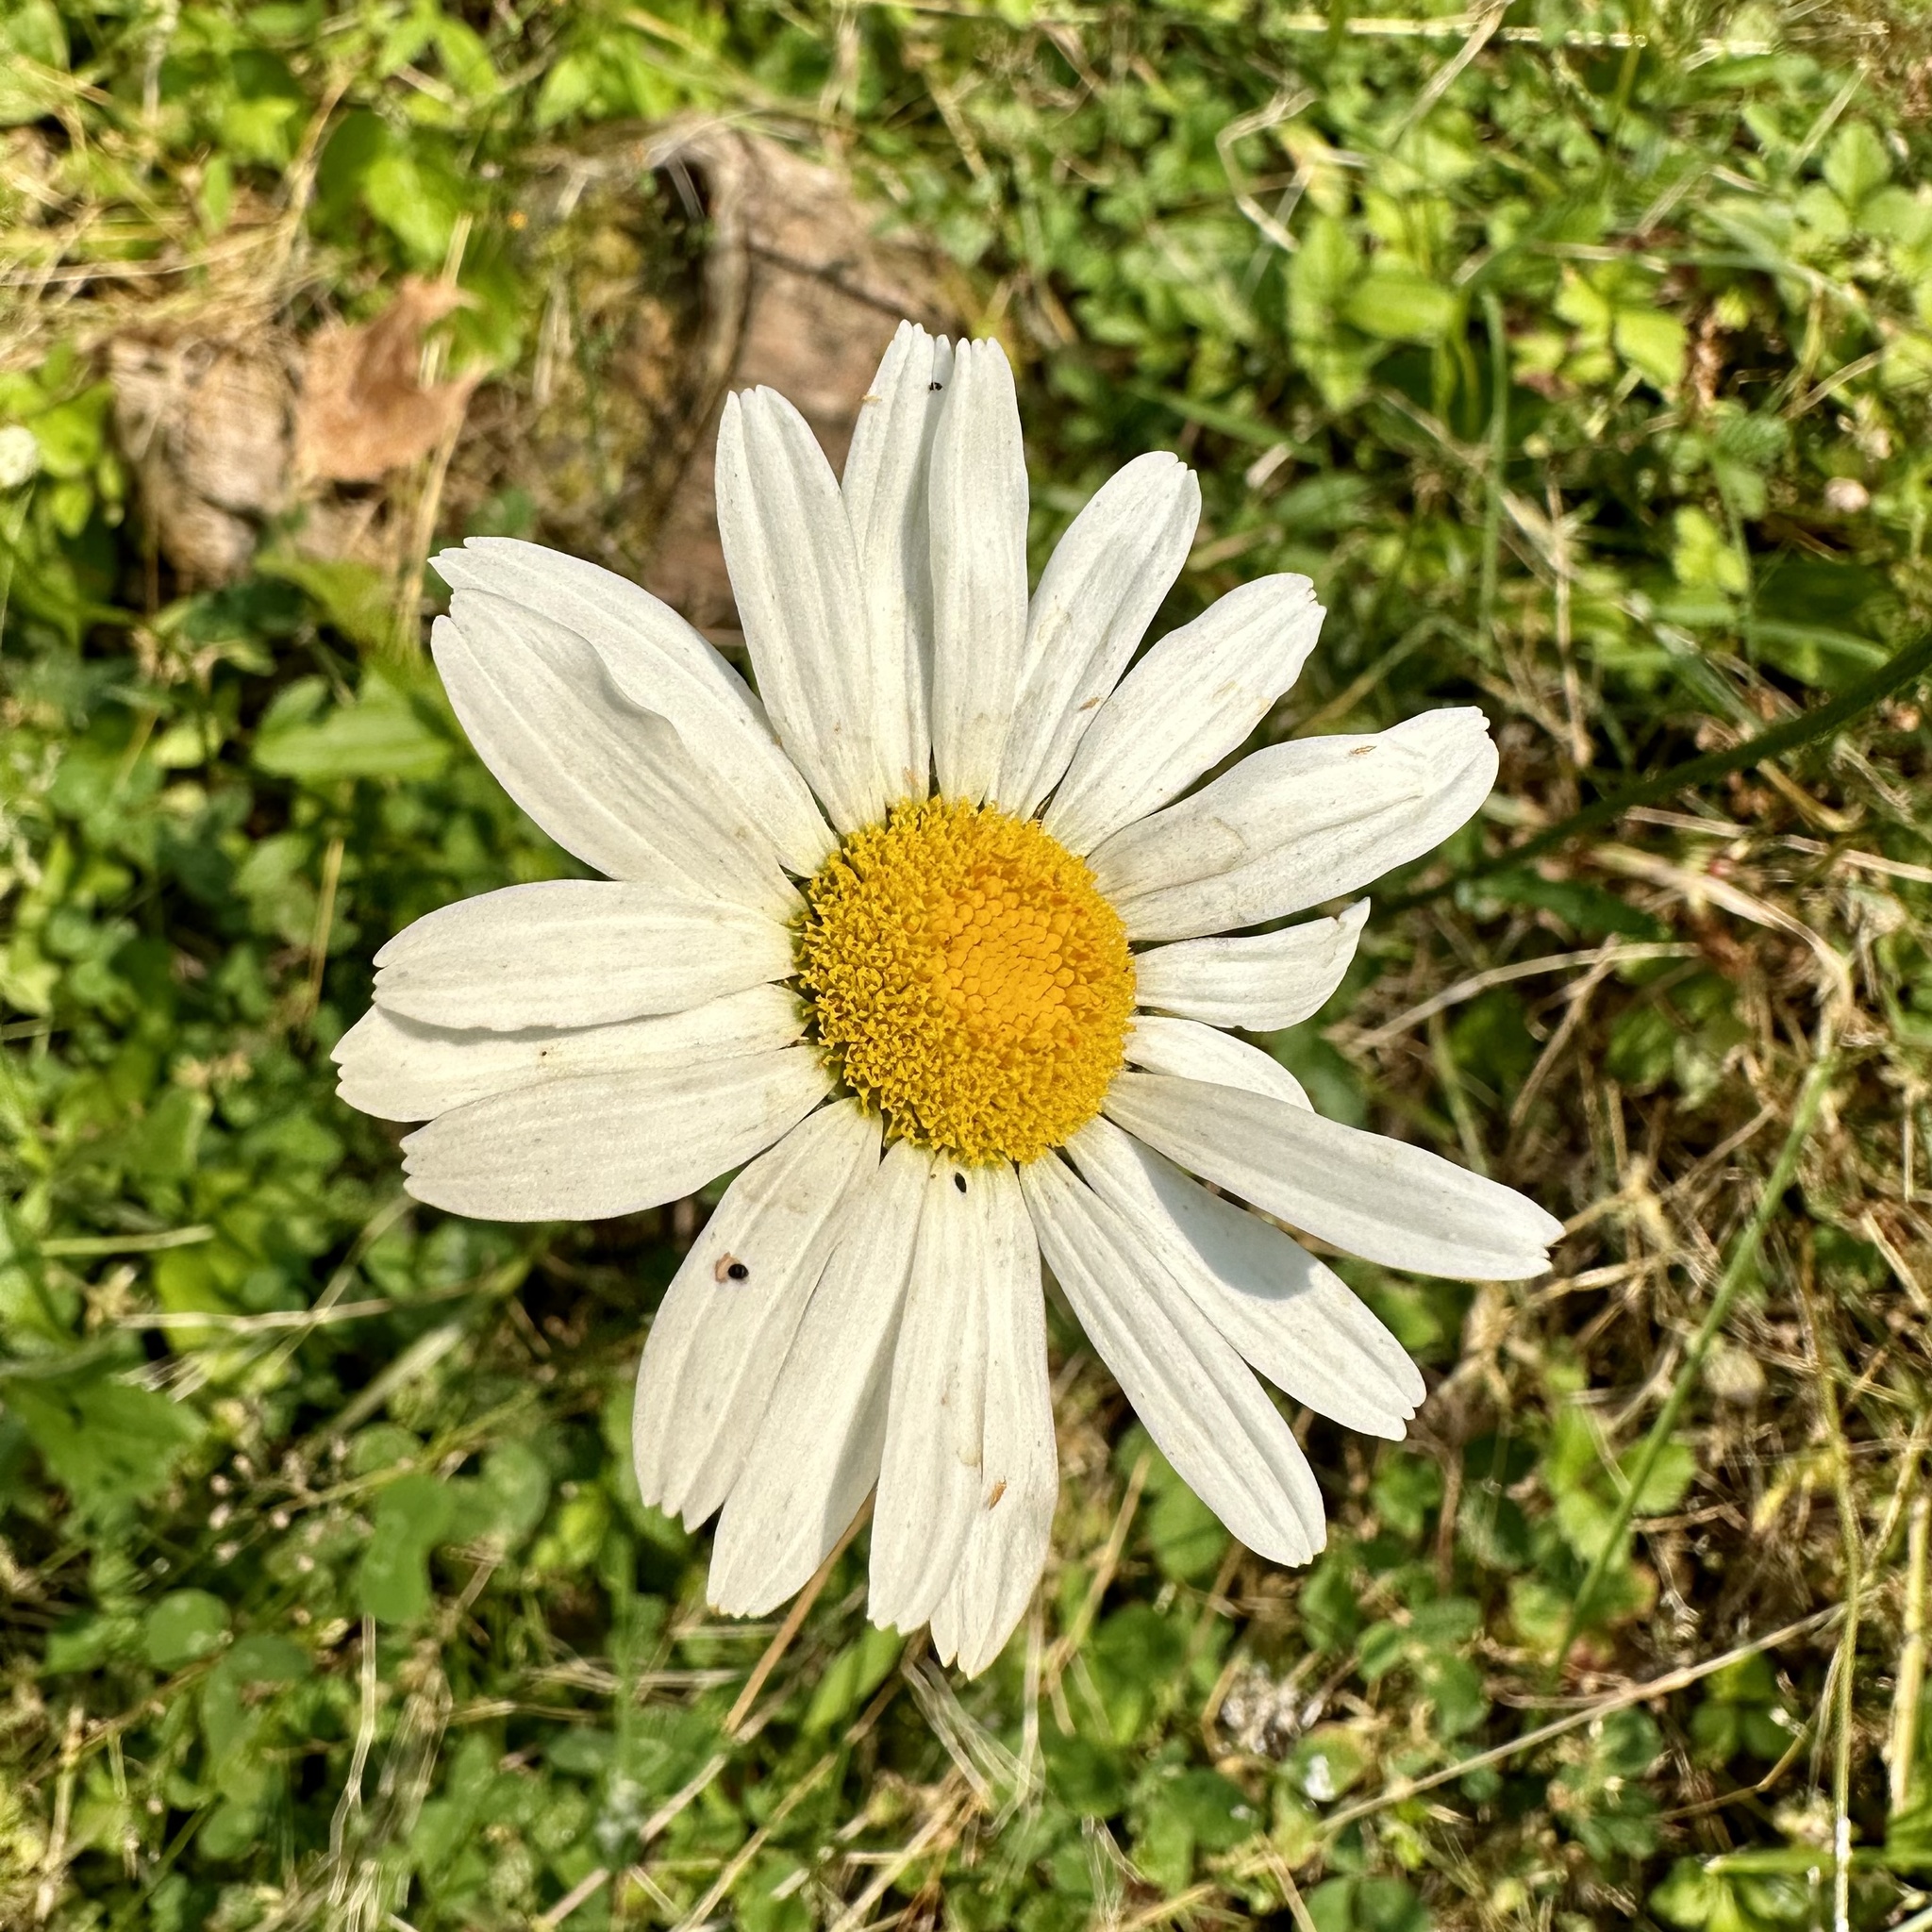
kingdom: Plantae
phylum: Tracheophyta
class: Magnoliopsida
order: Asterales
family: Asteraceae
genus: Leucanthemum
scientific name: Leucanthemum vulgare
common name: Oxeye daisy
